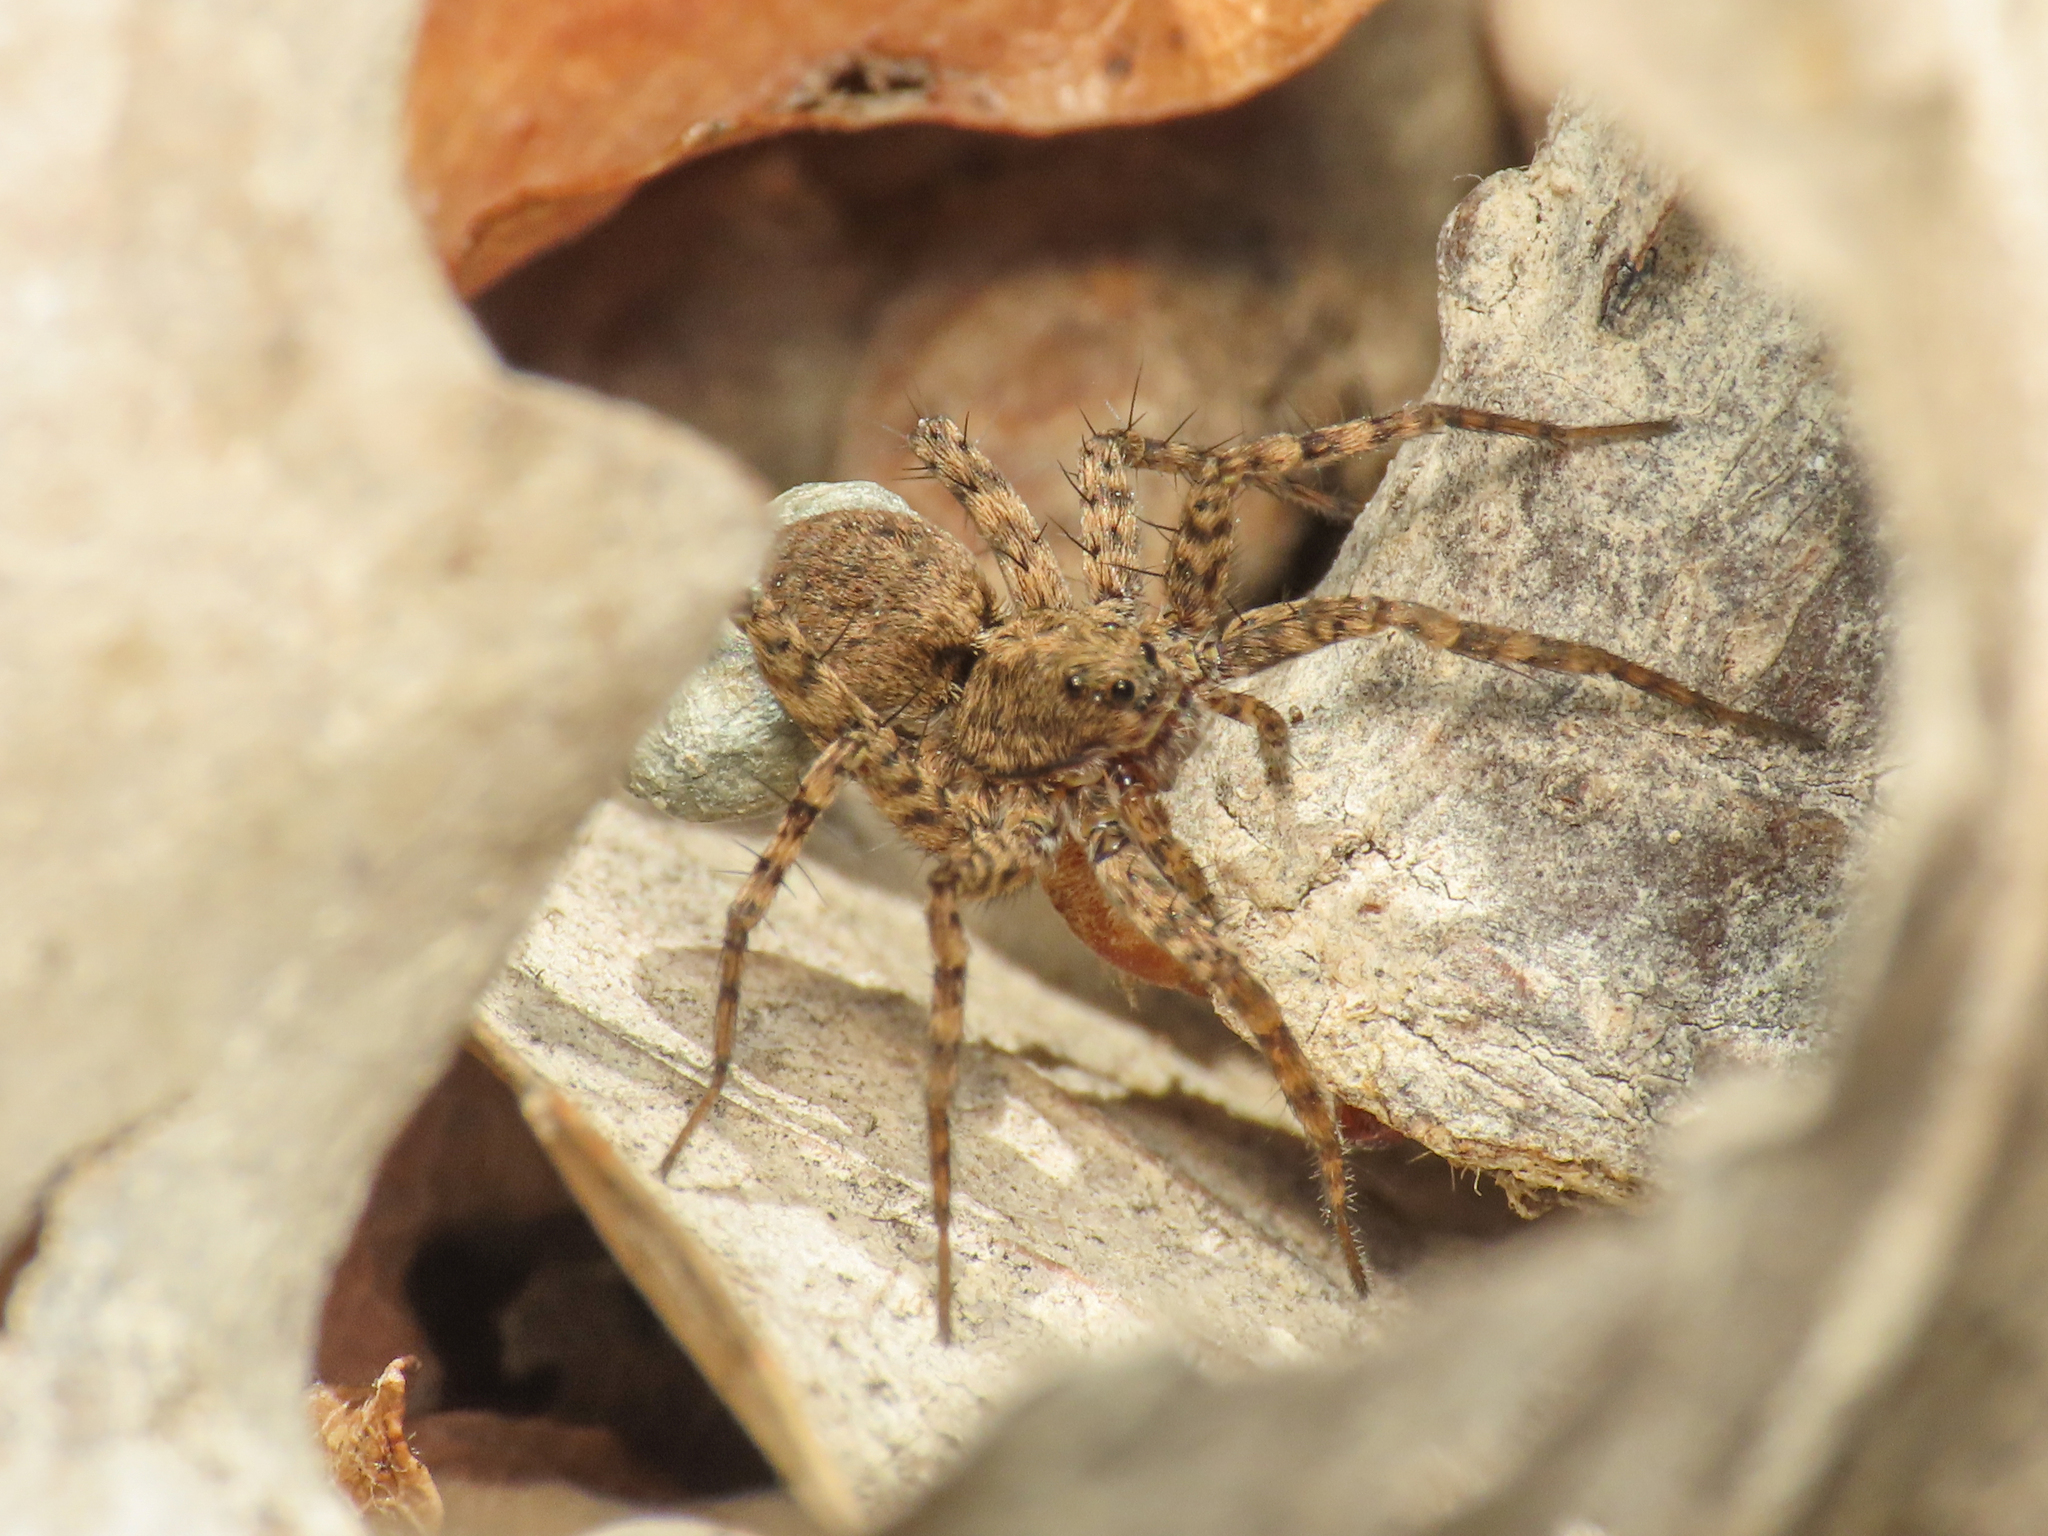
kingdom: Animalia
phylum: Arthropoda
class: Arachnida
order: Araneae
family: Lycosidae
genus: Pardosa
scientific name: Pardosa hortensis
